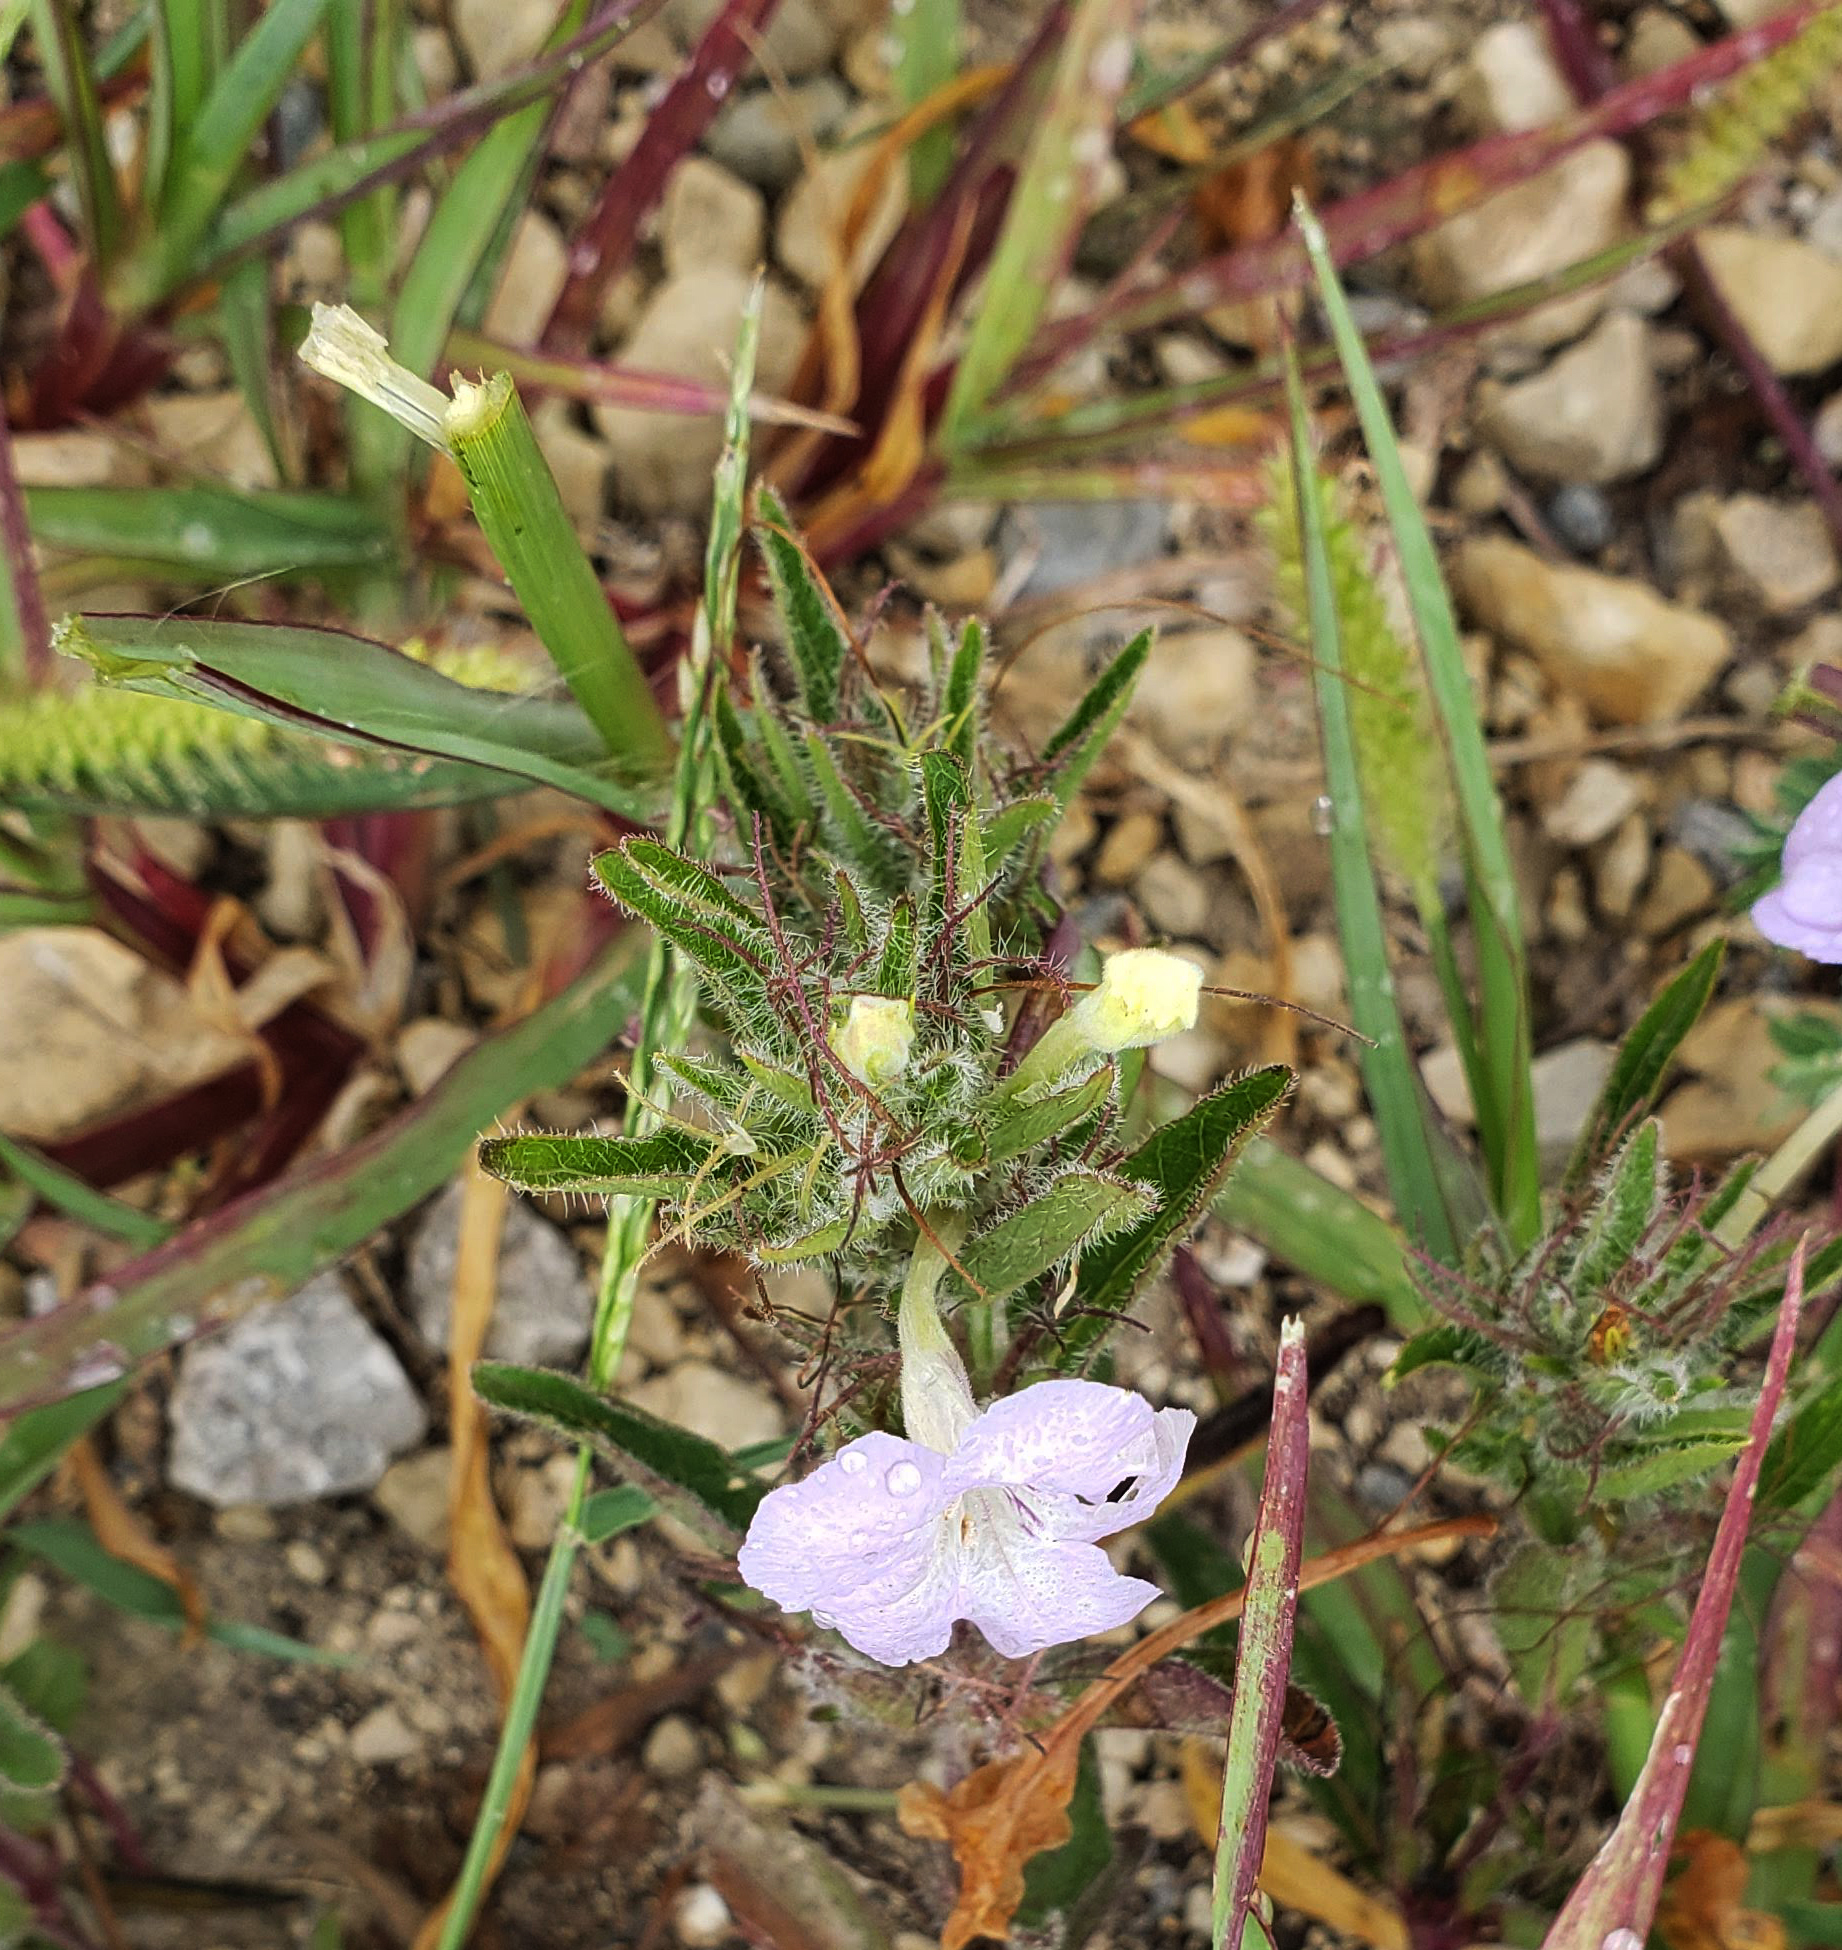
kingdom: Plantae
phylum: Tracheophyta
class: Magnoliopsida
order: Lamiales
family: Acanthaceae
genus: Ruellia
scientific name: Ruellia humilis
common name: Fringe-leaf ruellia
